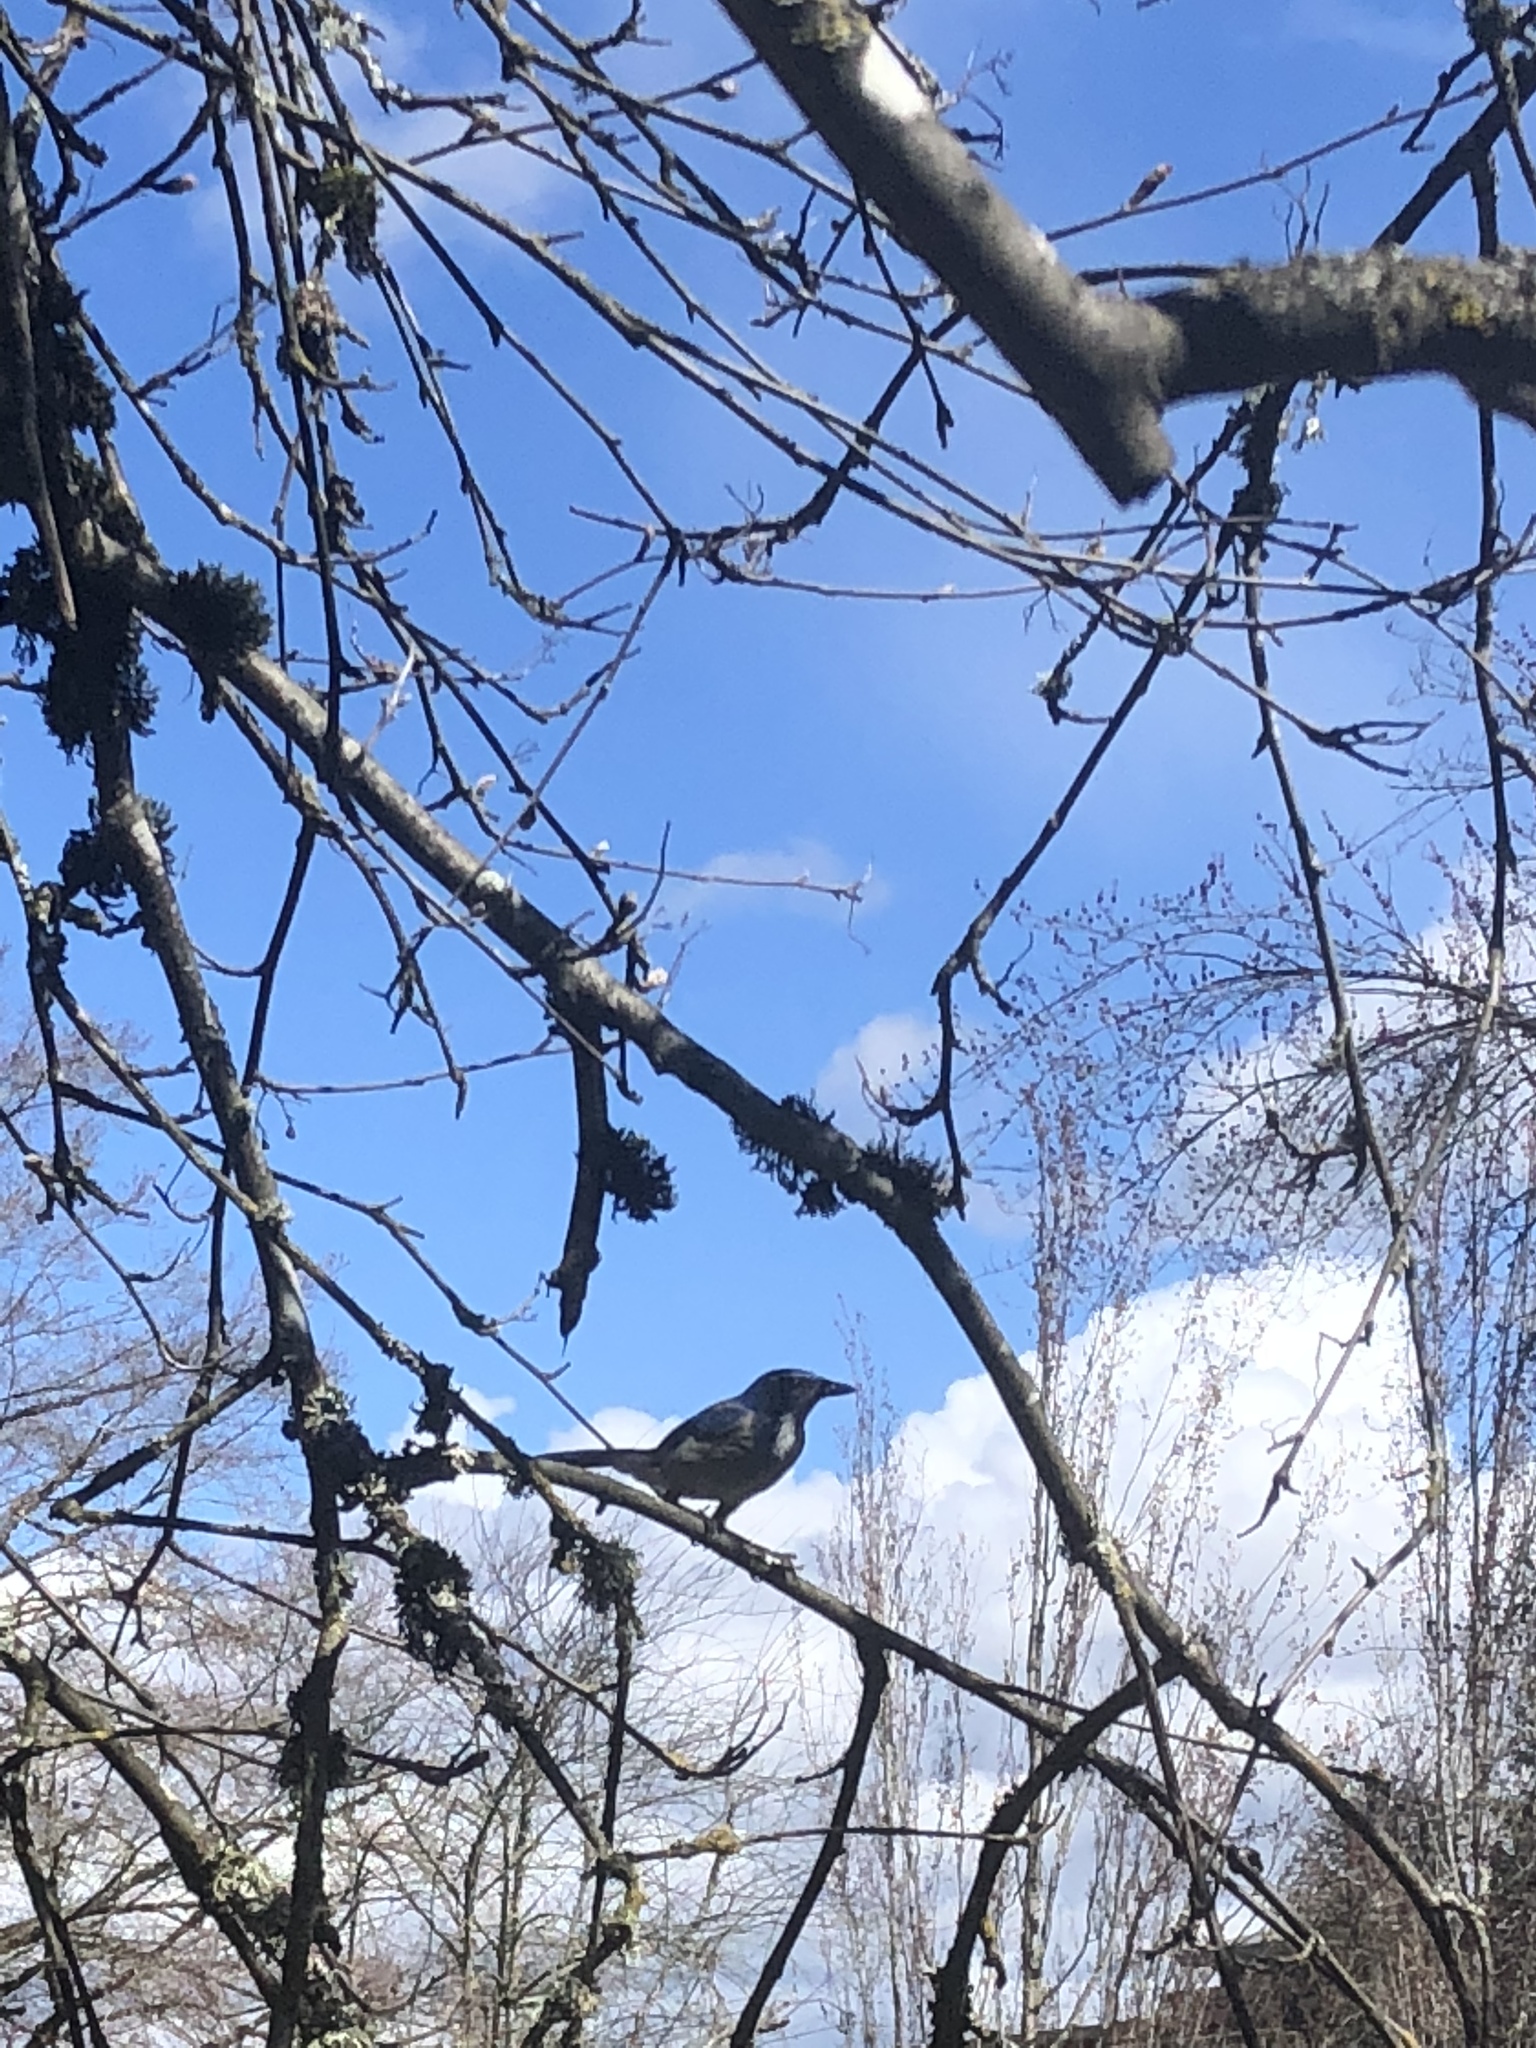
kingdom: Animalia
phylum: Chordata
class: Aves
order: Passeriformes
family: Corvidae
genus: Aphelocoma
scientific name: Aphelocoma californica
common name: California scrub-jay
